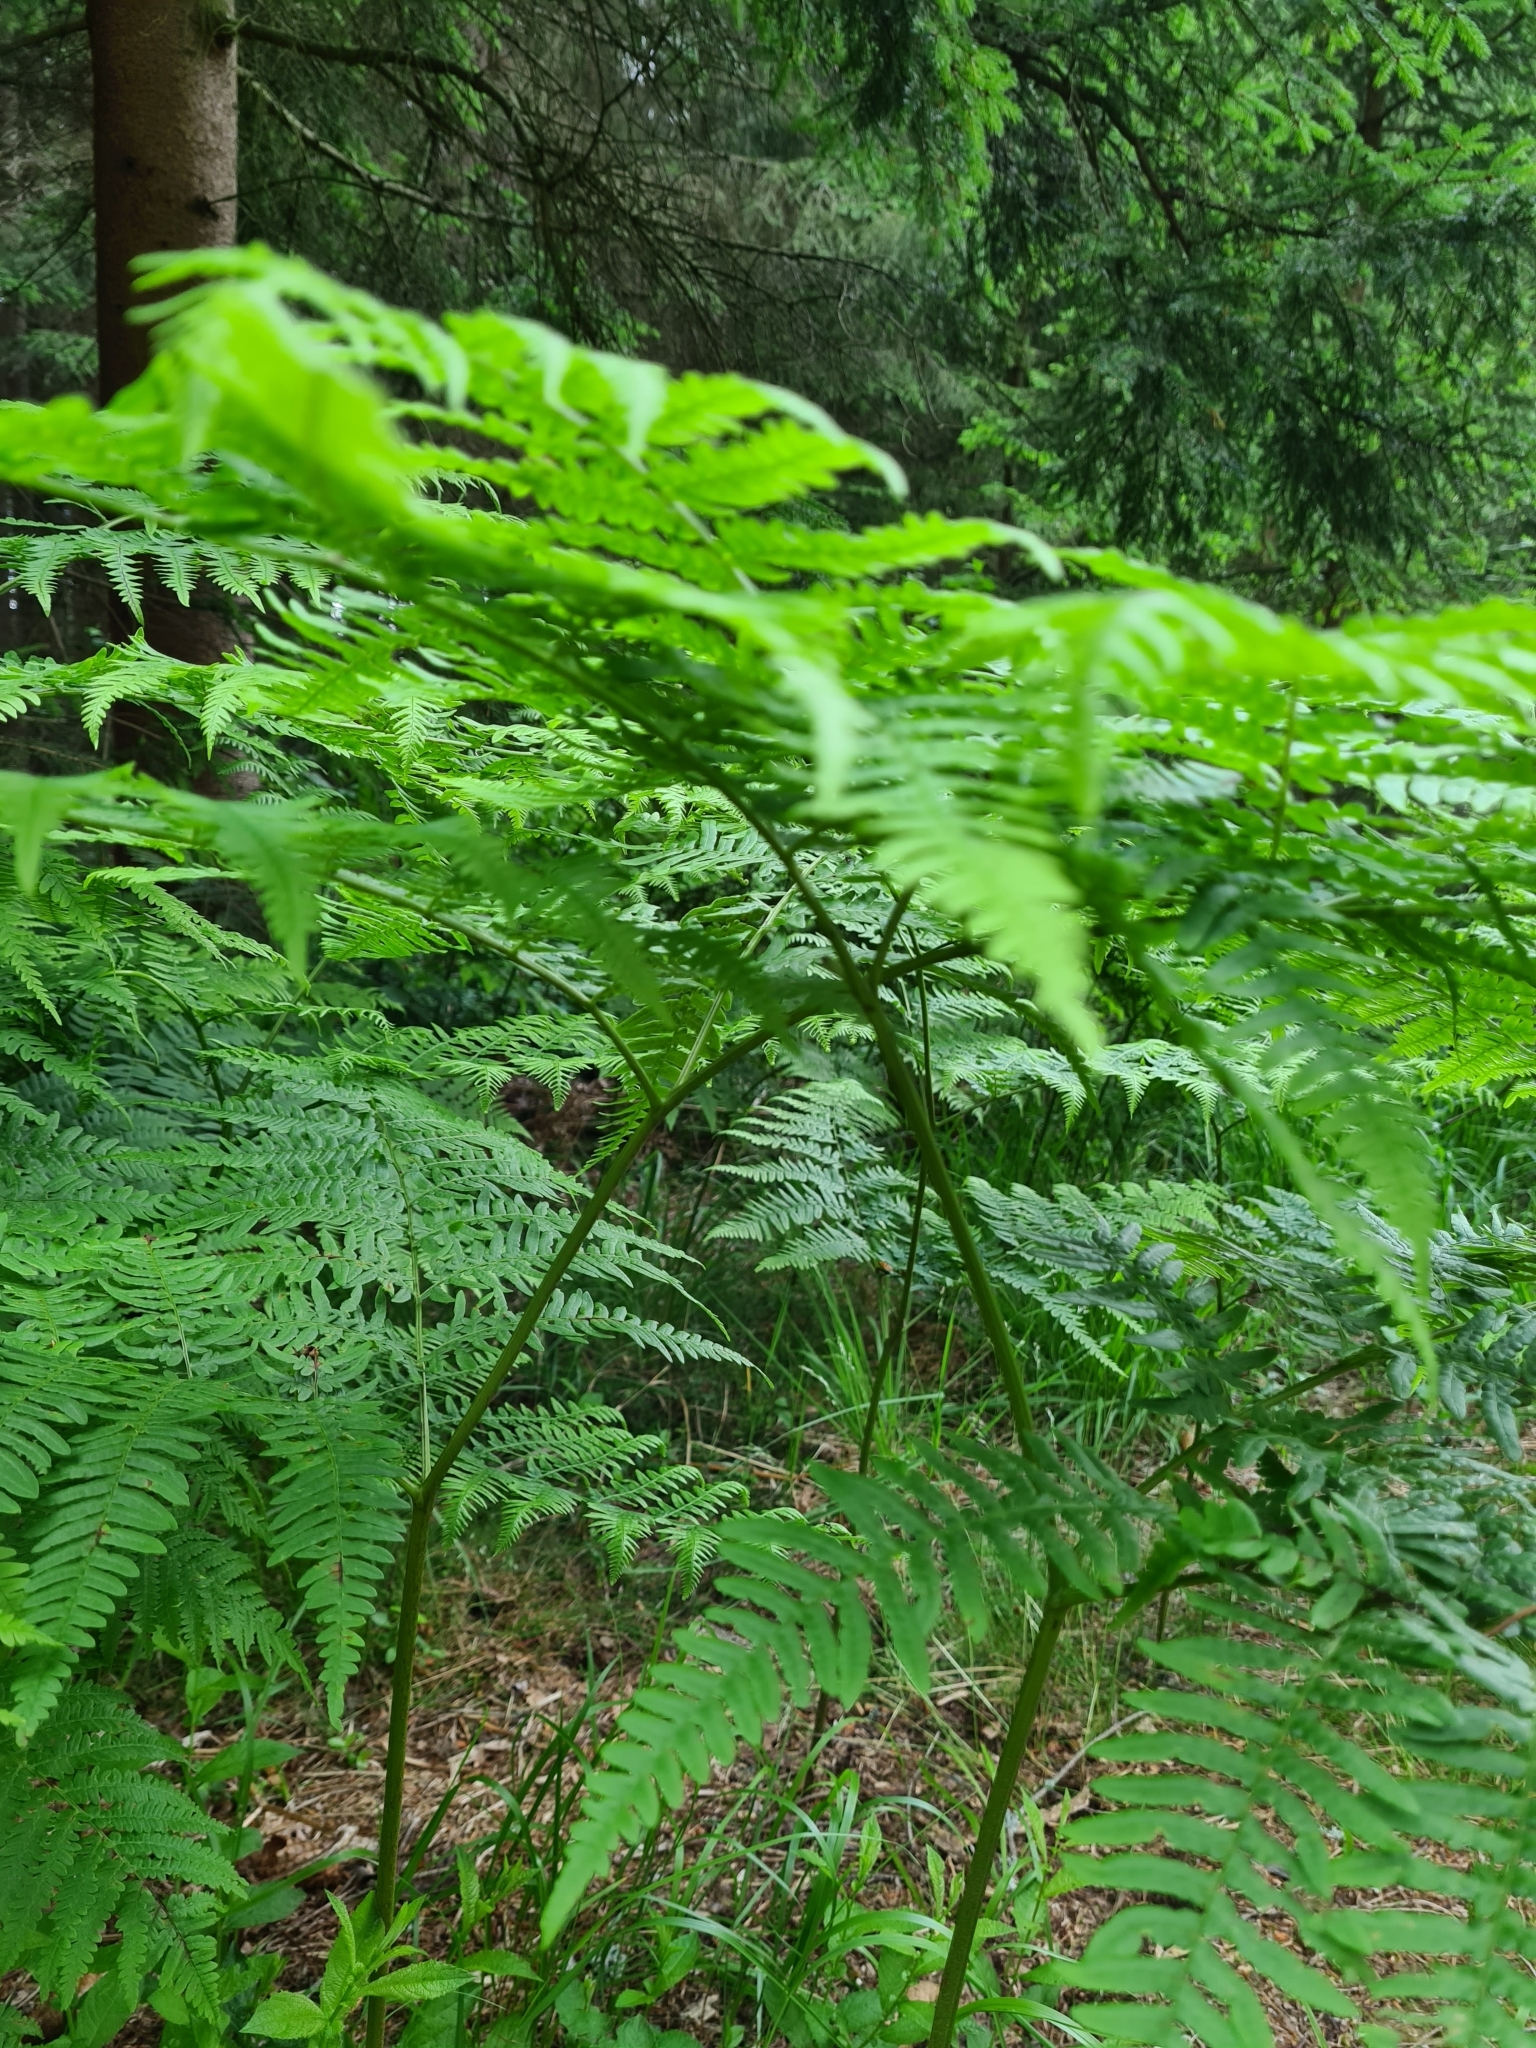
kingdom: Plantae
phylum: Tracheophyta
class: Polypodiopsida
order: Polypodiales
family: Dennstaedtiaceae
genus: Pteridium
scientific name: Pteridium aquilinum
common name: Bracken
